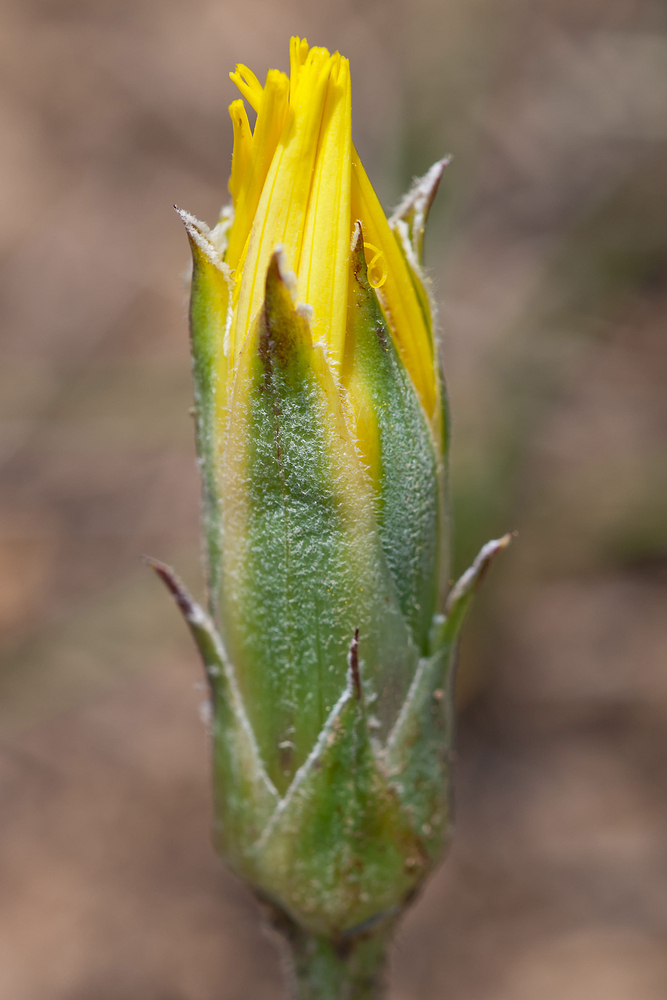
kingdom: Plantae
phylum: Tracheophyta
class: Magnoliopsida
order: Asterales
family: Asteraceae
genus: Pseudopodospermum
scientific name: Pseudopodospermum hispanicum
